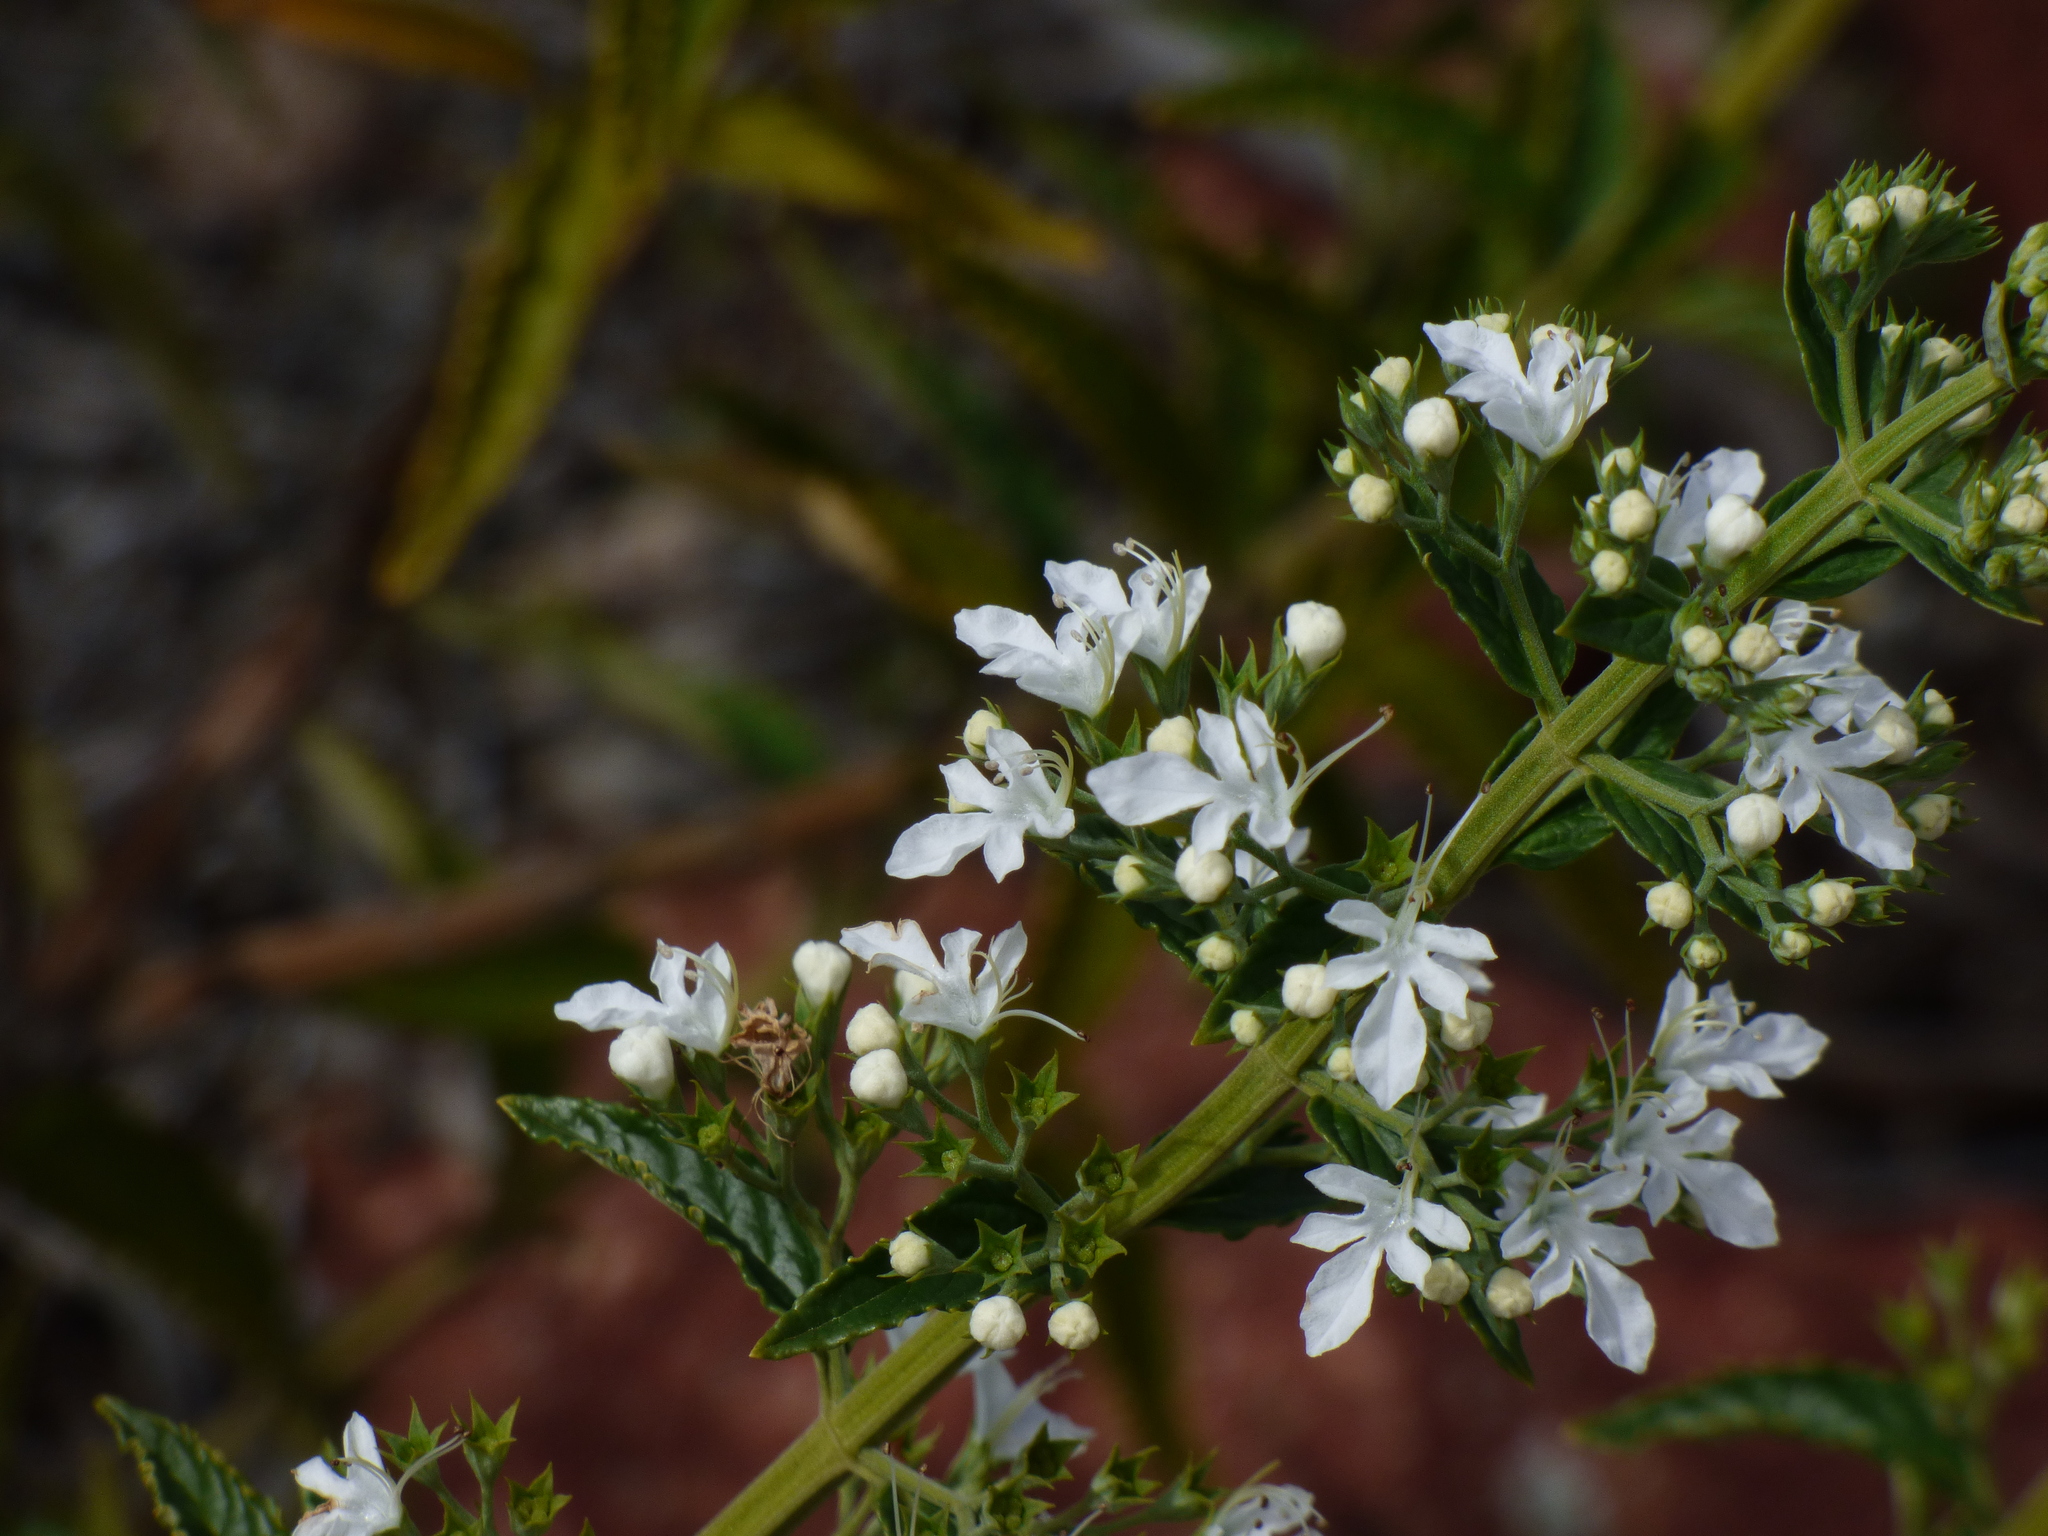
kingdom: Plantae
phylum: Tracheophyta
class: Magnoliopsida
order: Lamiales
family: Lamiaceae
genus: Teucrium
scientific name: Teucrium corymbosum
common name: Forest germander
